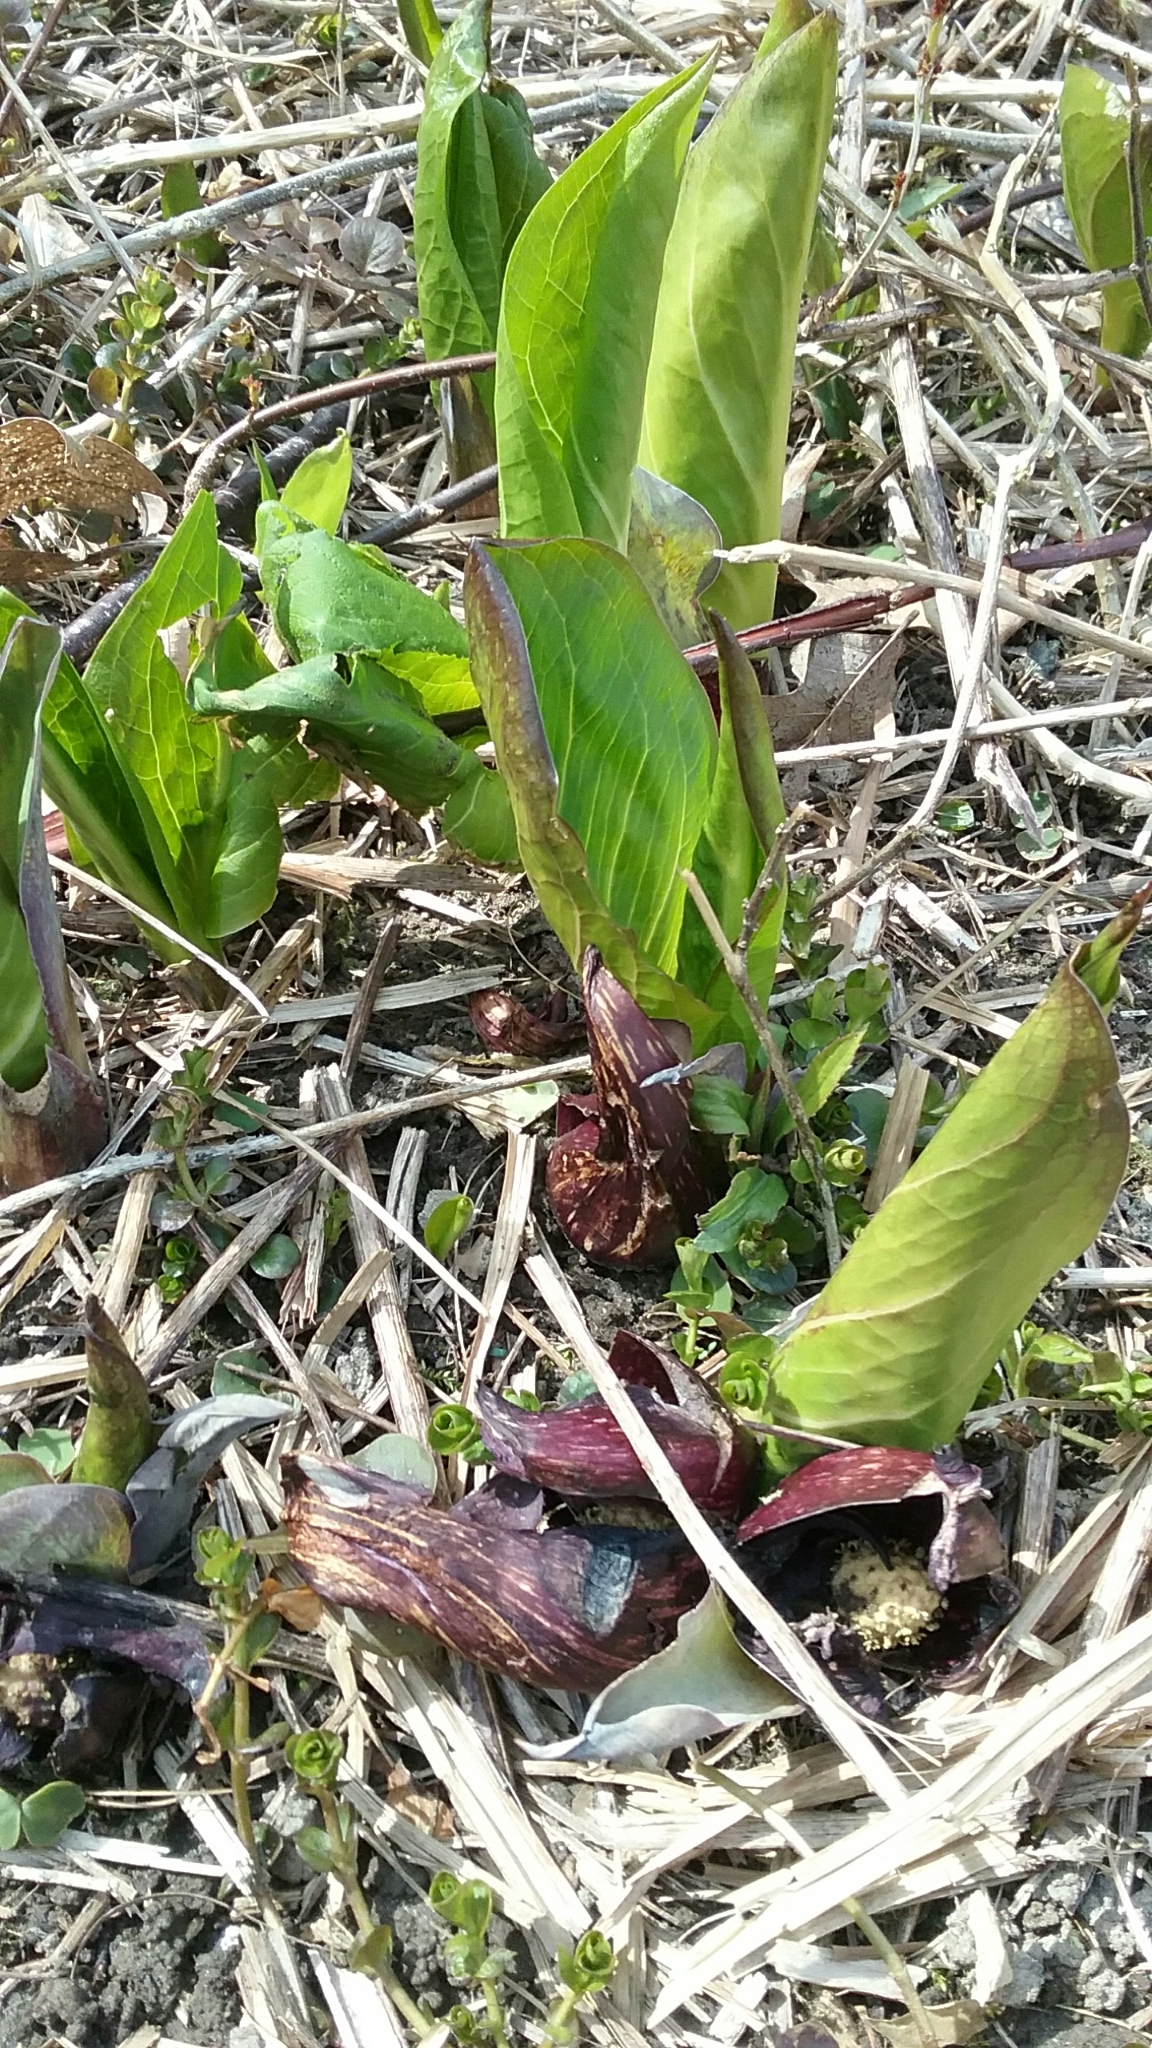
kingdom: Plantae
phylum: Tracheophyta
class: Liliopsida
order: Alismatales
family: Araceae
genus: Symplocarpus
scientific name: Symplocarpus foetidus
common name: Eastern skunk cabbage
